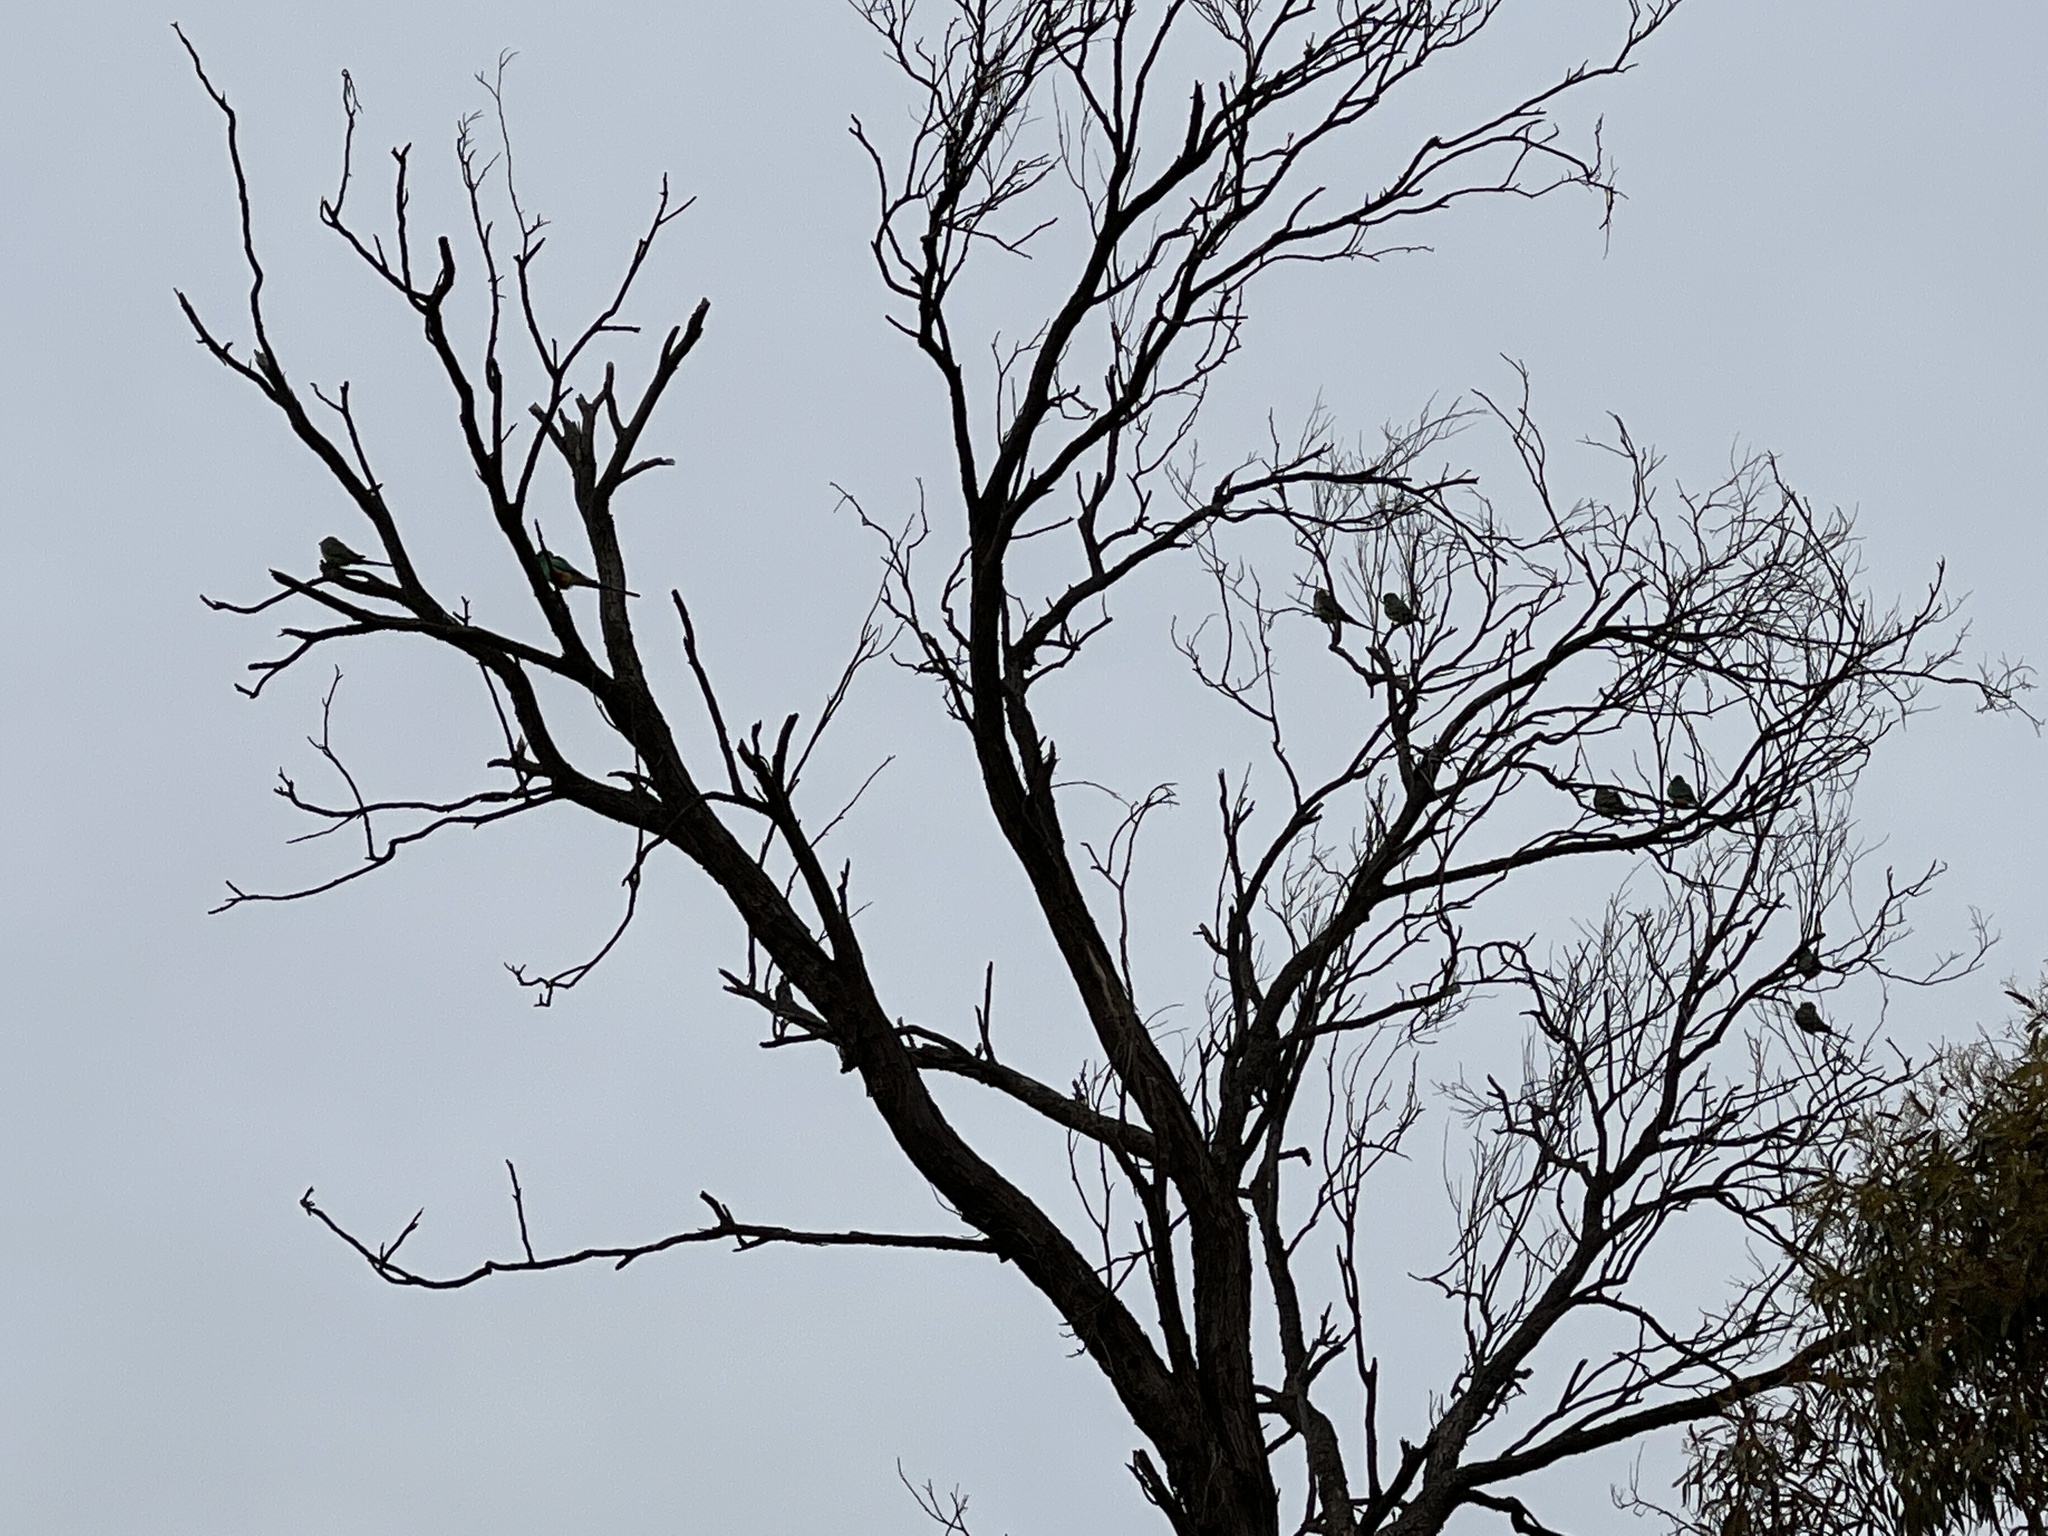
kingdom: Animalia
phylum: Chordata
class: Aves
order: Psittaciformes
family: Psittaculidae
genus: Psephotellus
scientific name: Psephotellus varius
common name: Mulga parrot
